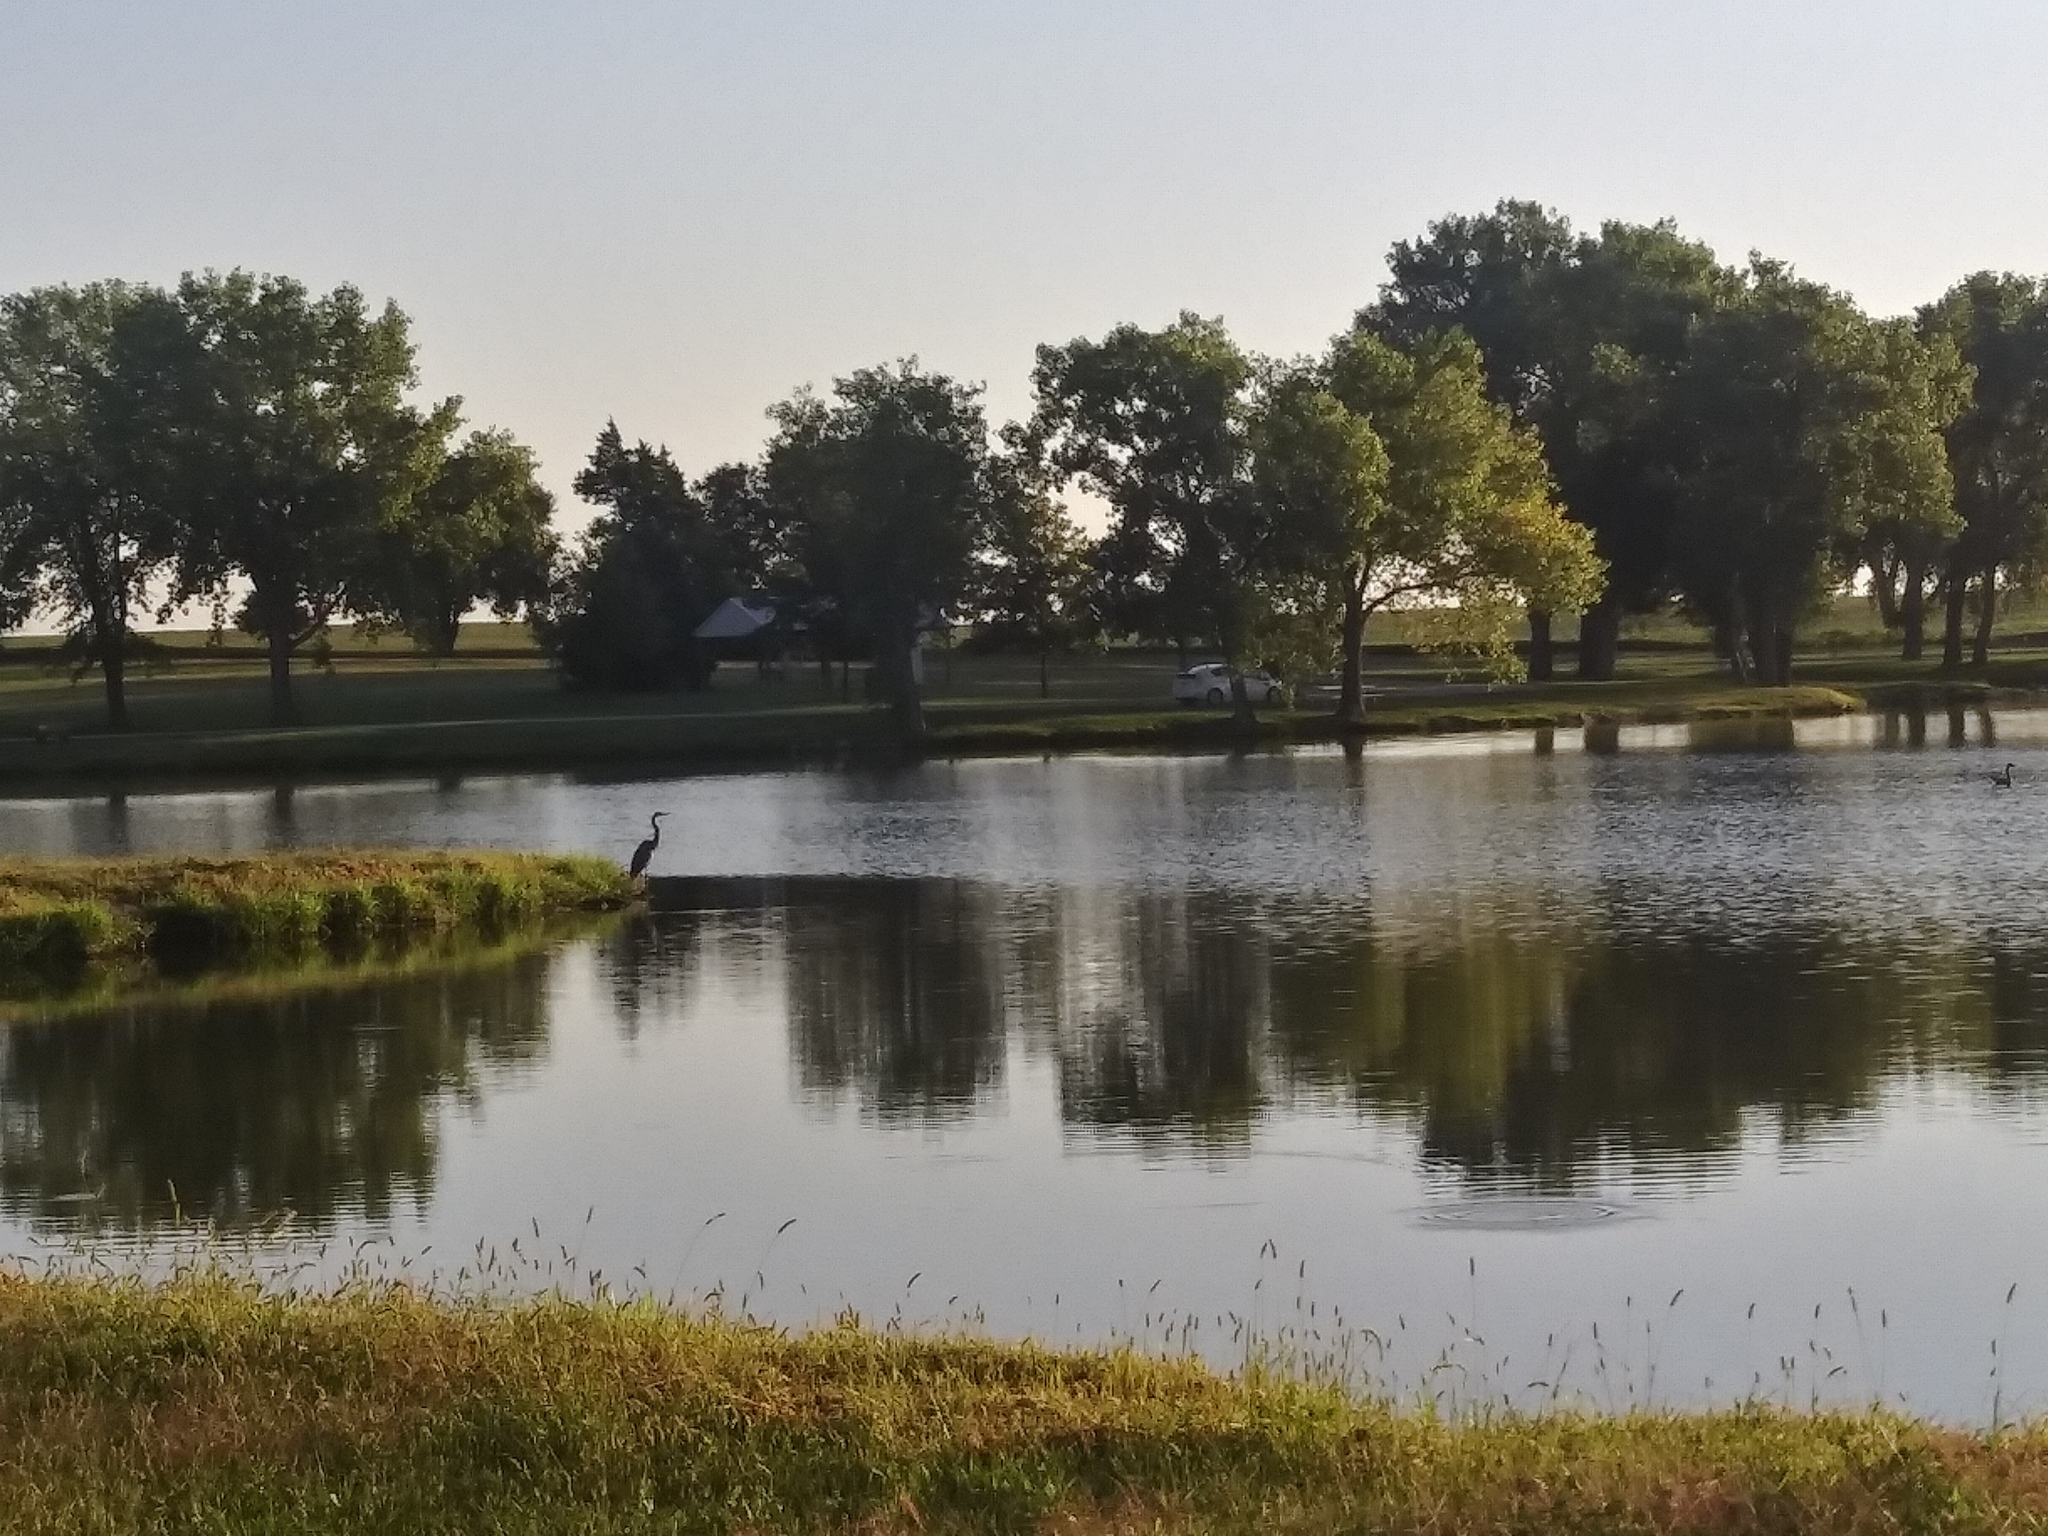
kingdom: Animalia
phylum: Chordata
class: Aves
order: Pelecaniformes
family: Ardeidae
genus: Ardea
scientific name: Ardea herodias
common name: Great blue heron
